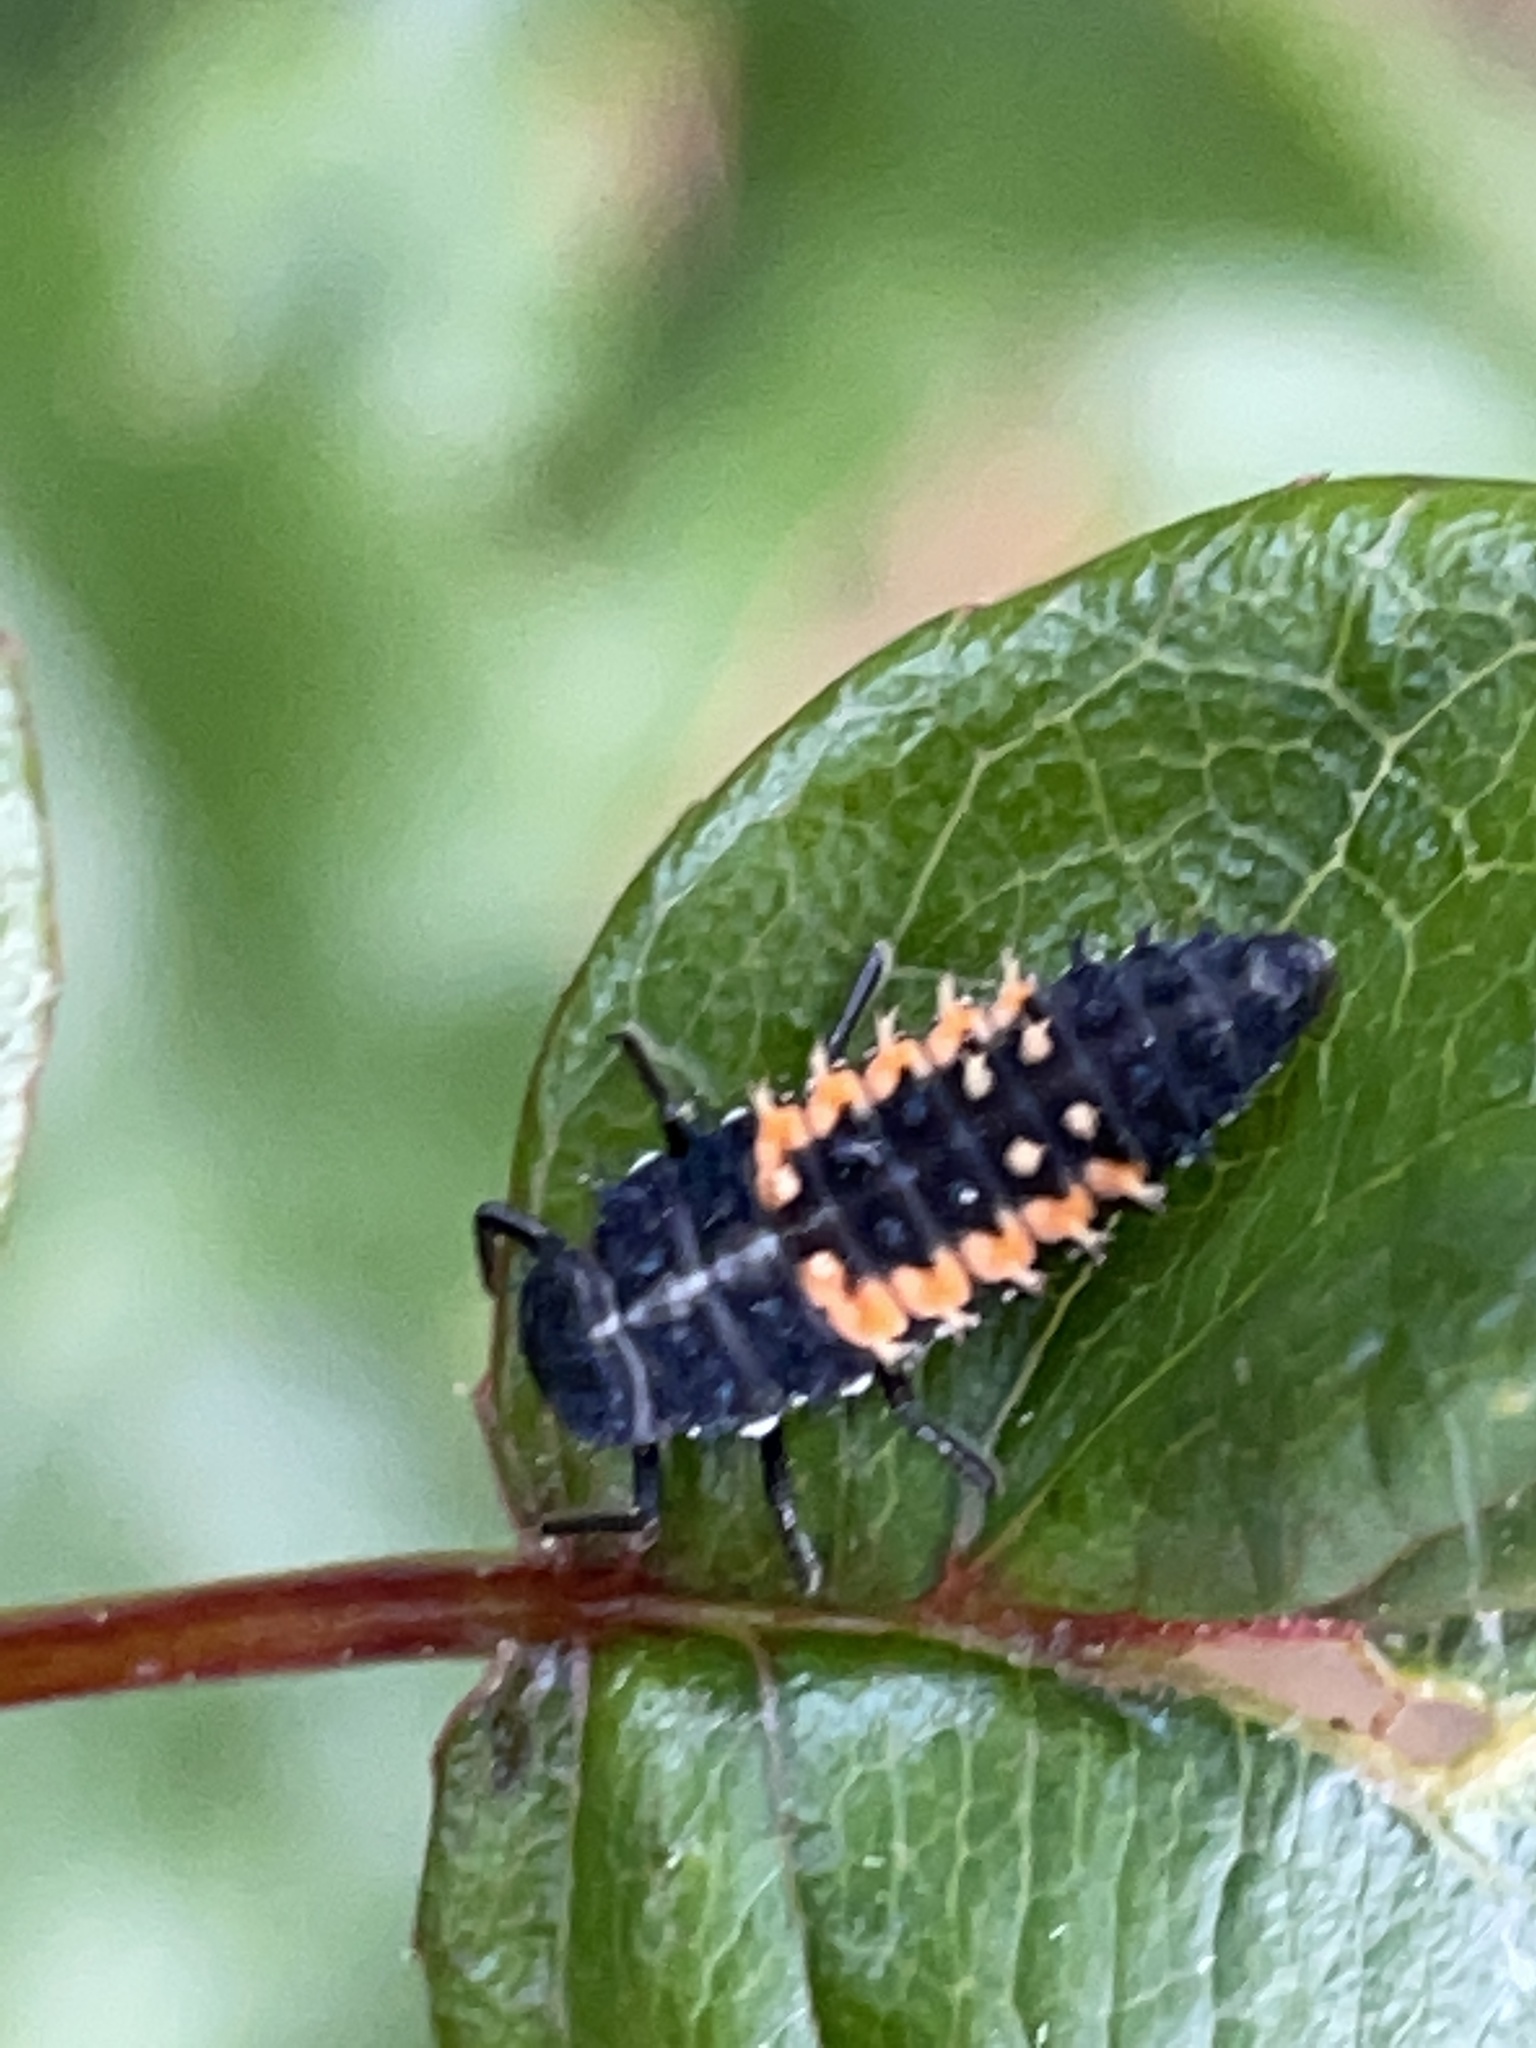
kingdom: Animalia
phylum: Arthropoda
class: Insecta
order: Coleoptera
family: Coccinellidae
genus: Harmonia
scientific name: Harmonia axyridis
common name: Harlequin ladybird
